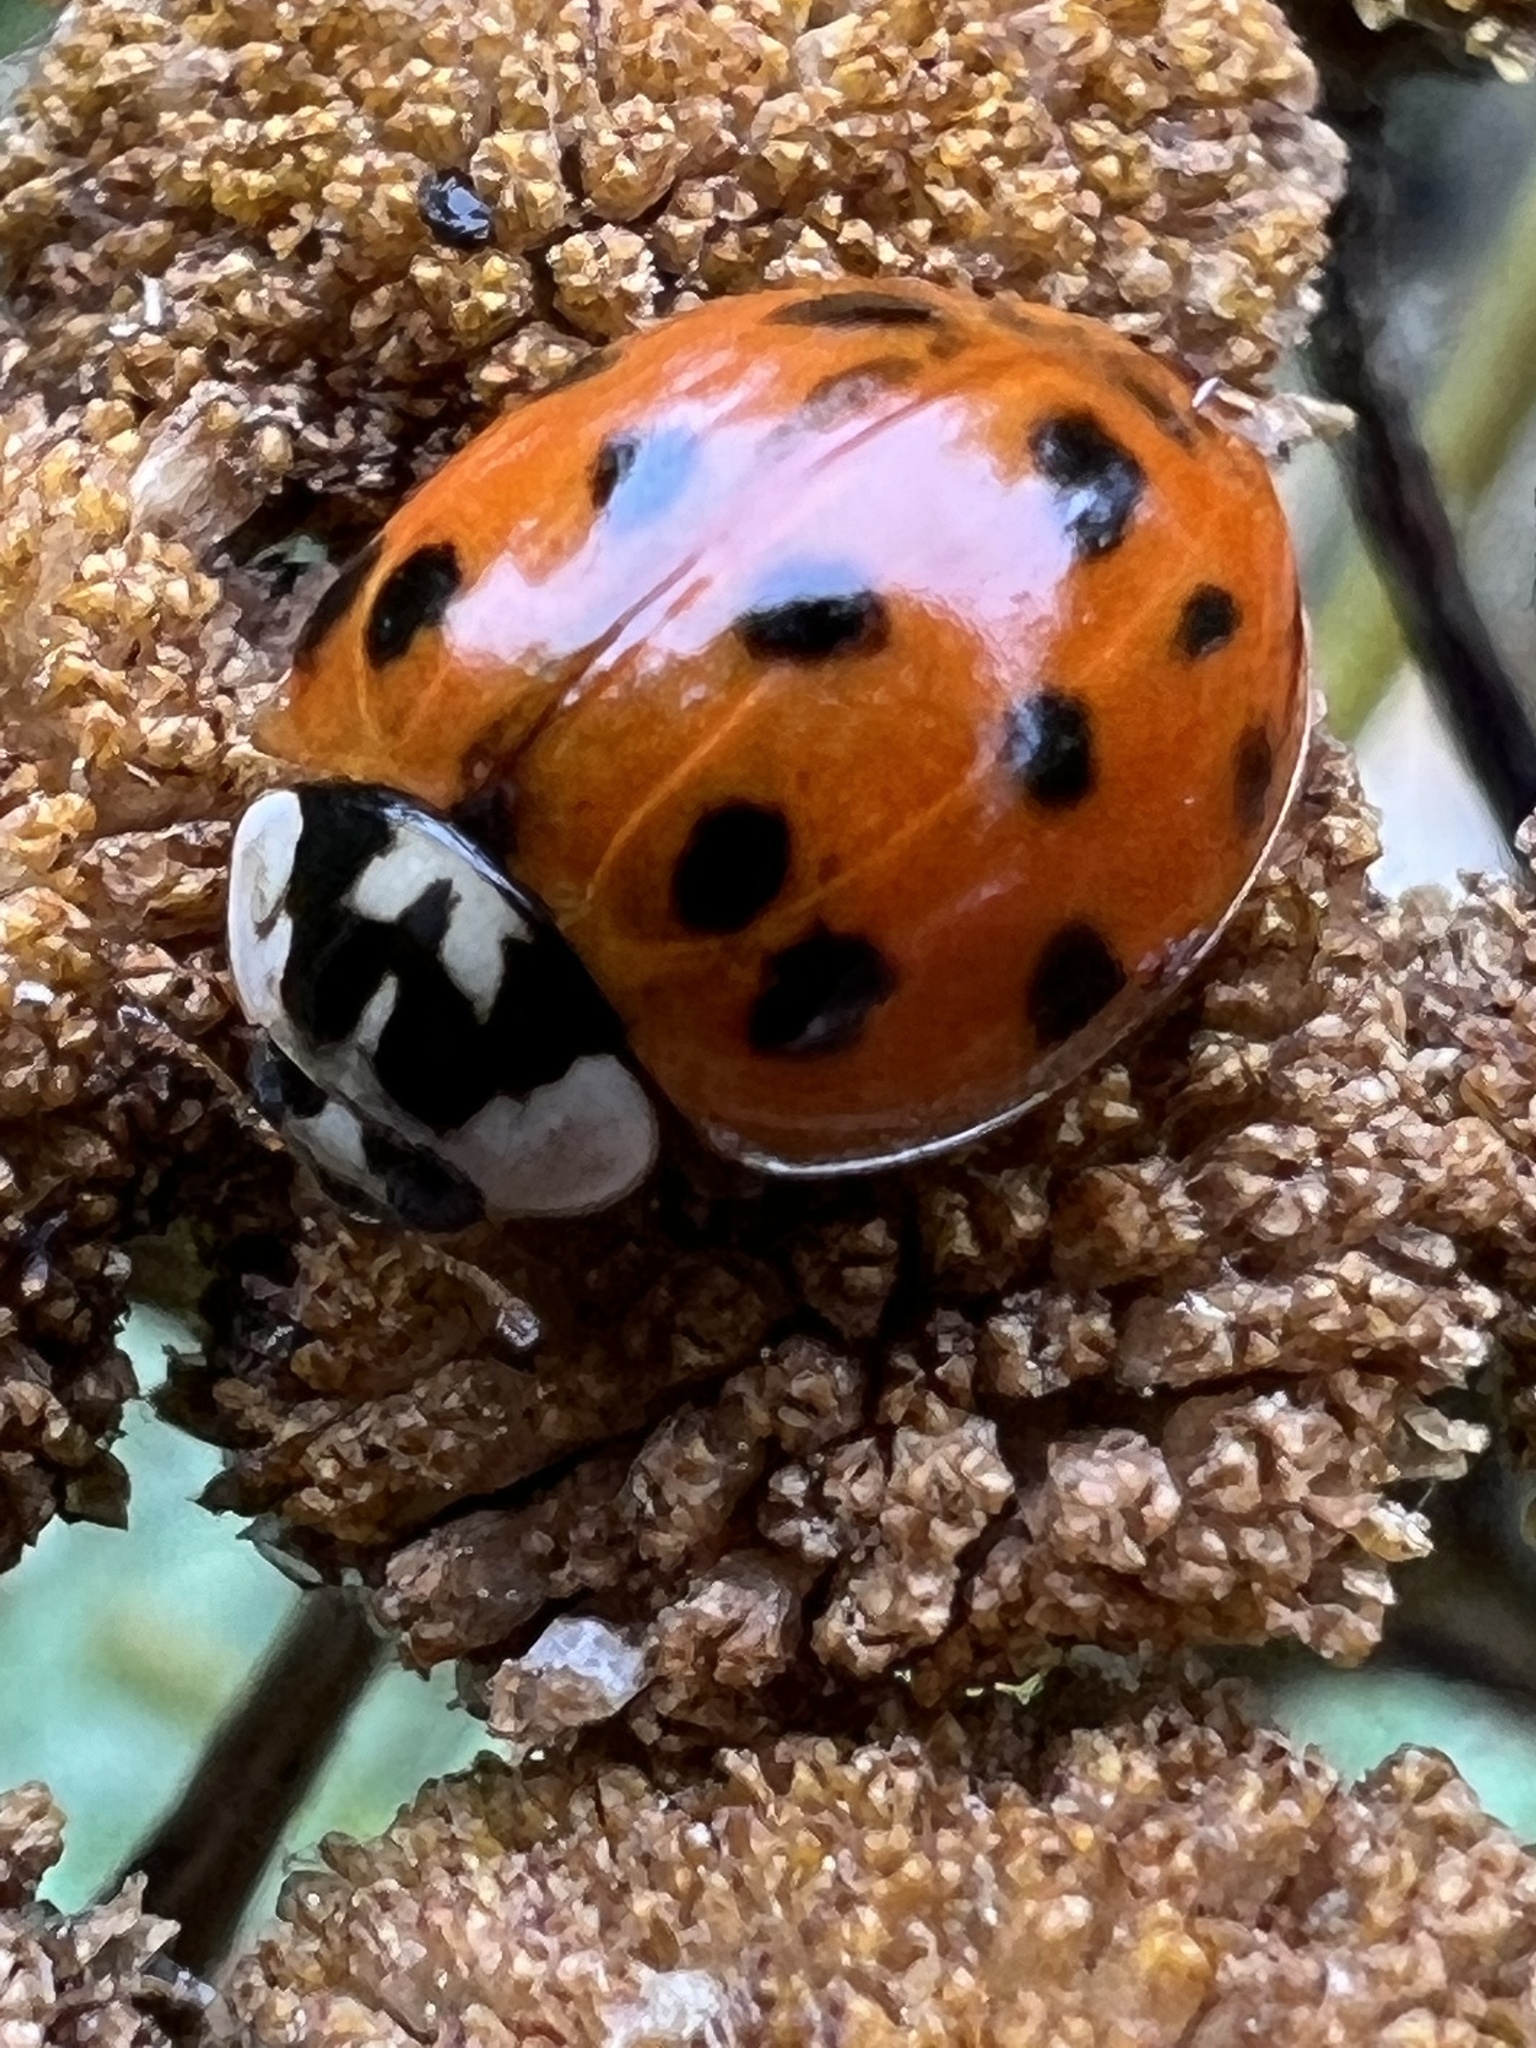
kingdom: Animalia
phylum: Arthropoda
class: Insecta
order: Coleoptera
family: Coccinellidae
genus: Harmonia
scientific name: Harmonia axyridis
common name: Harlequin ladybird
